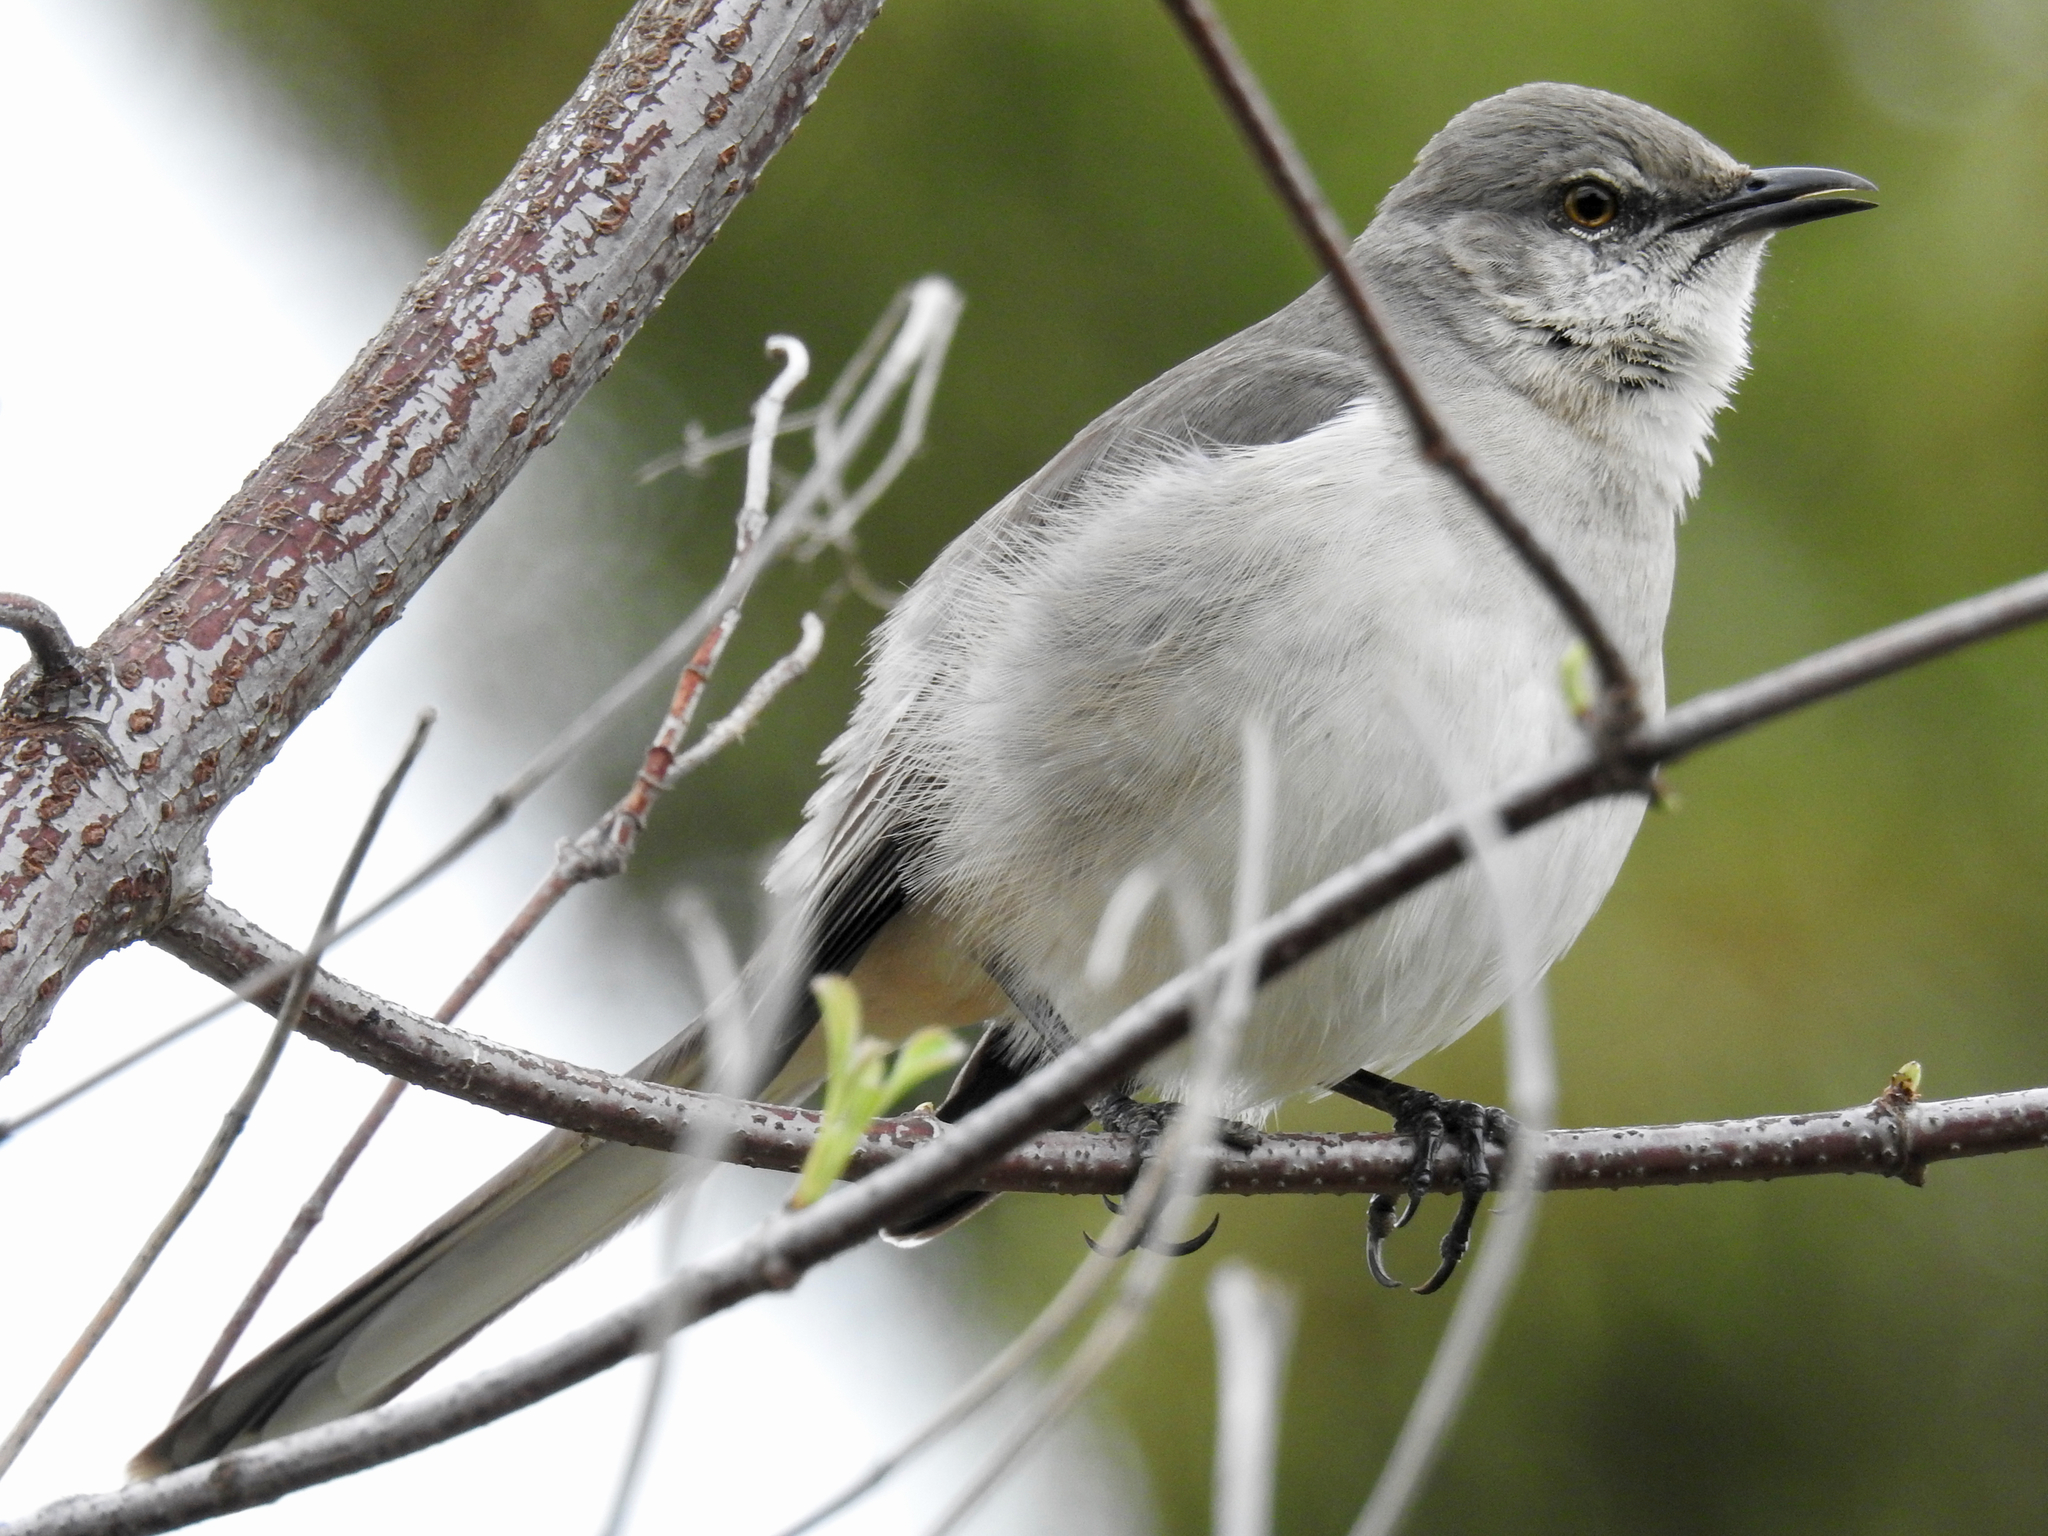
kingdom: Animalia
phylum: Chordata
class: Aves
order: Passeriformes
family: Mimidae
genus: Mimus
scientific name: Mimus polyglottos
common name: Northern mockingbird
